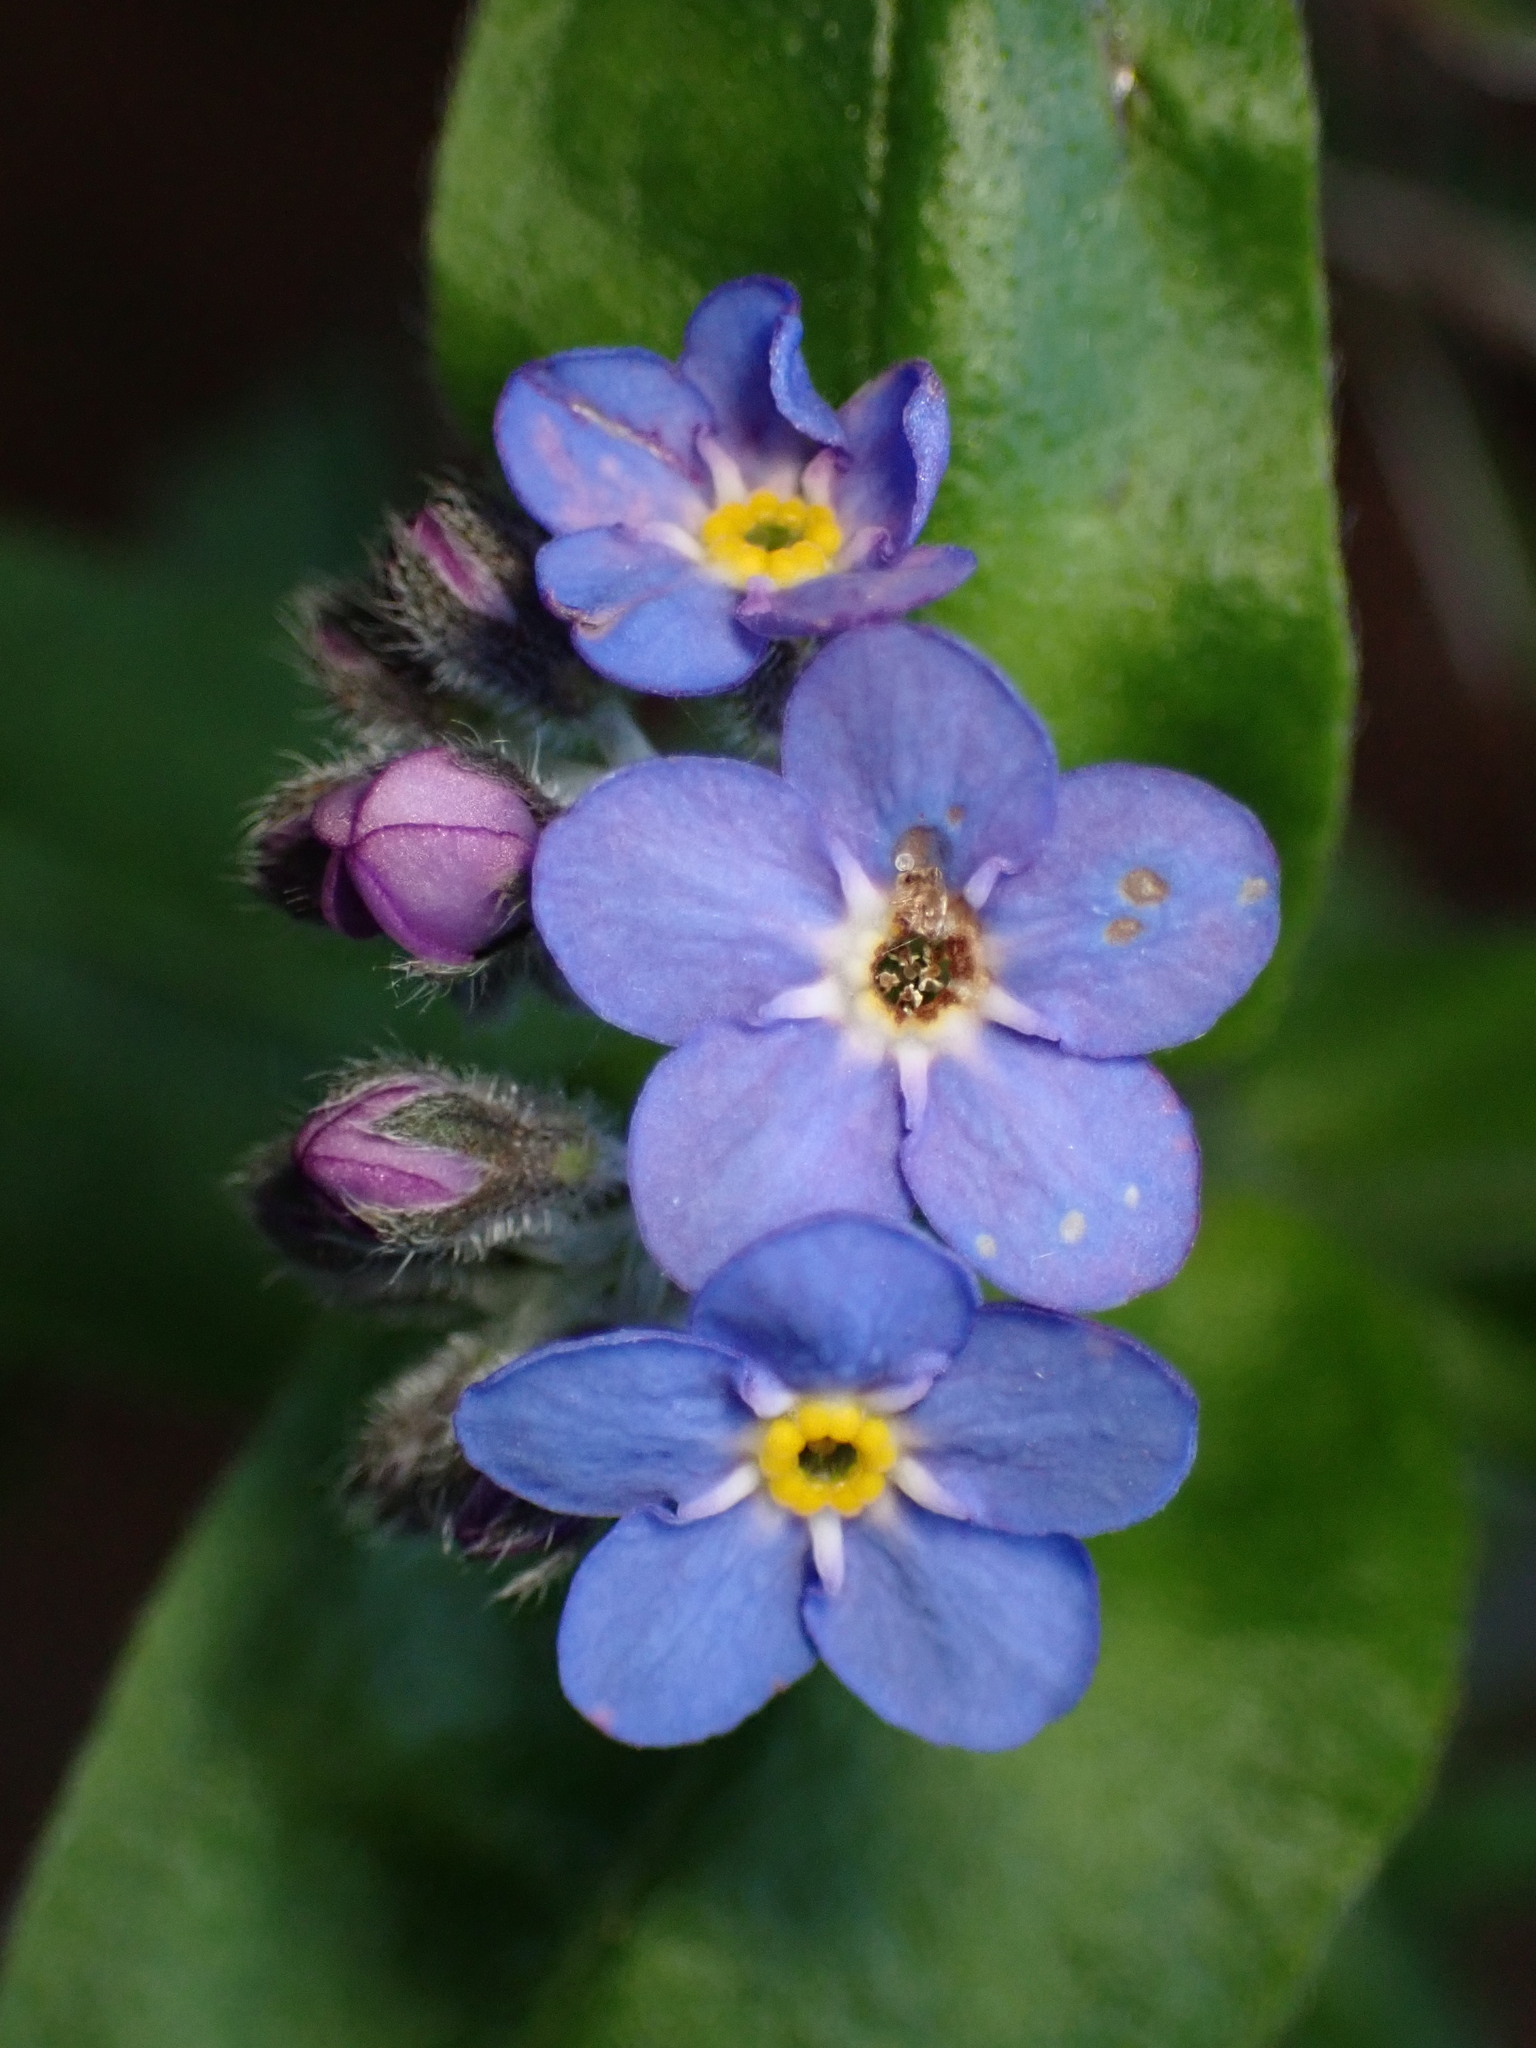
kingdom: Plantae
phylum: Tracheophyta
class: Magnoliopsida
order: Boraginales
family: Boraginaceae
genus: Myosotis
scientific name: Myosotis latifolia
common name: Broadleaf forget-me-not
